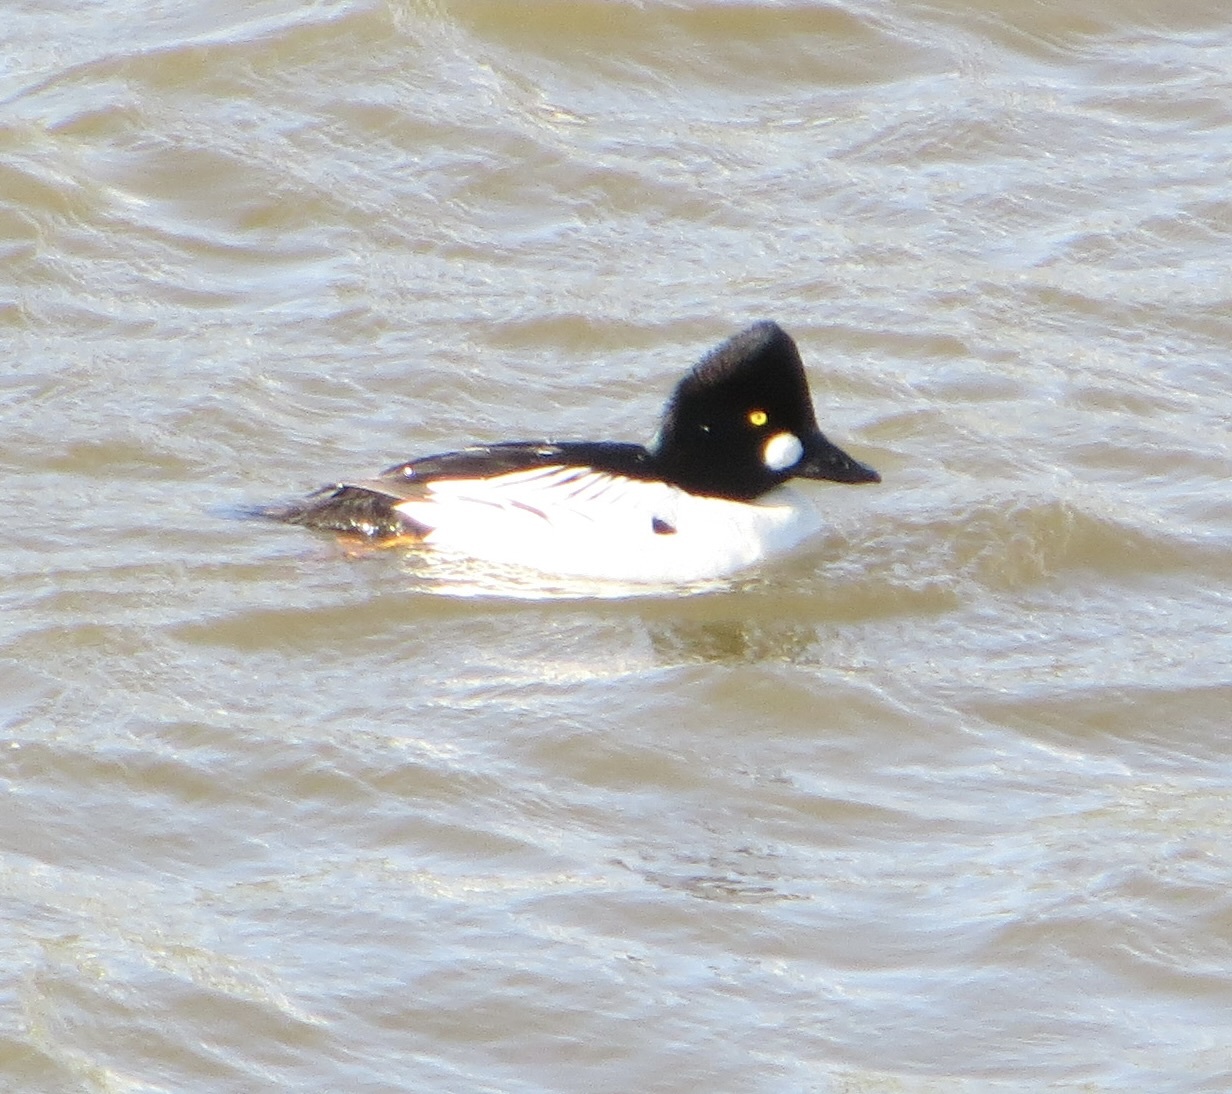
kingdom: Animalia
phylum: Chordata
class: Aves
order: Anseriformes
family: Anatidae
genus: Bucephala
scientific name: Bucephala clangula
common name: Common goldeneye
